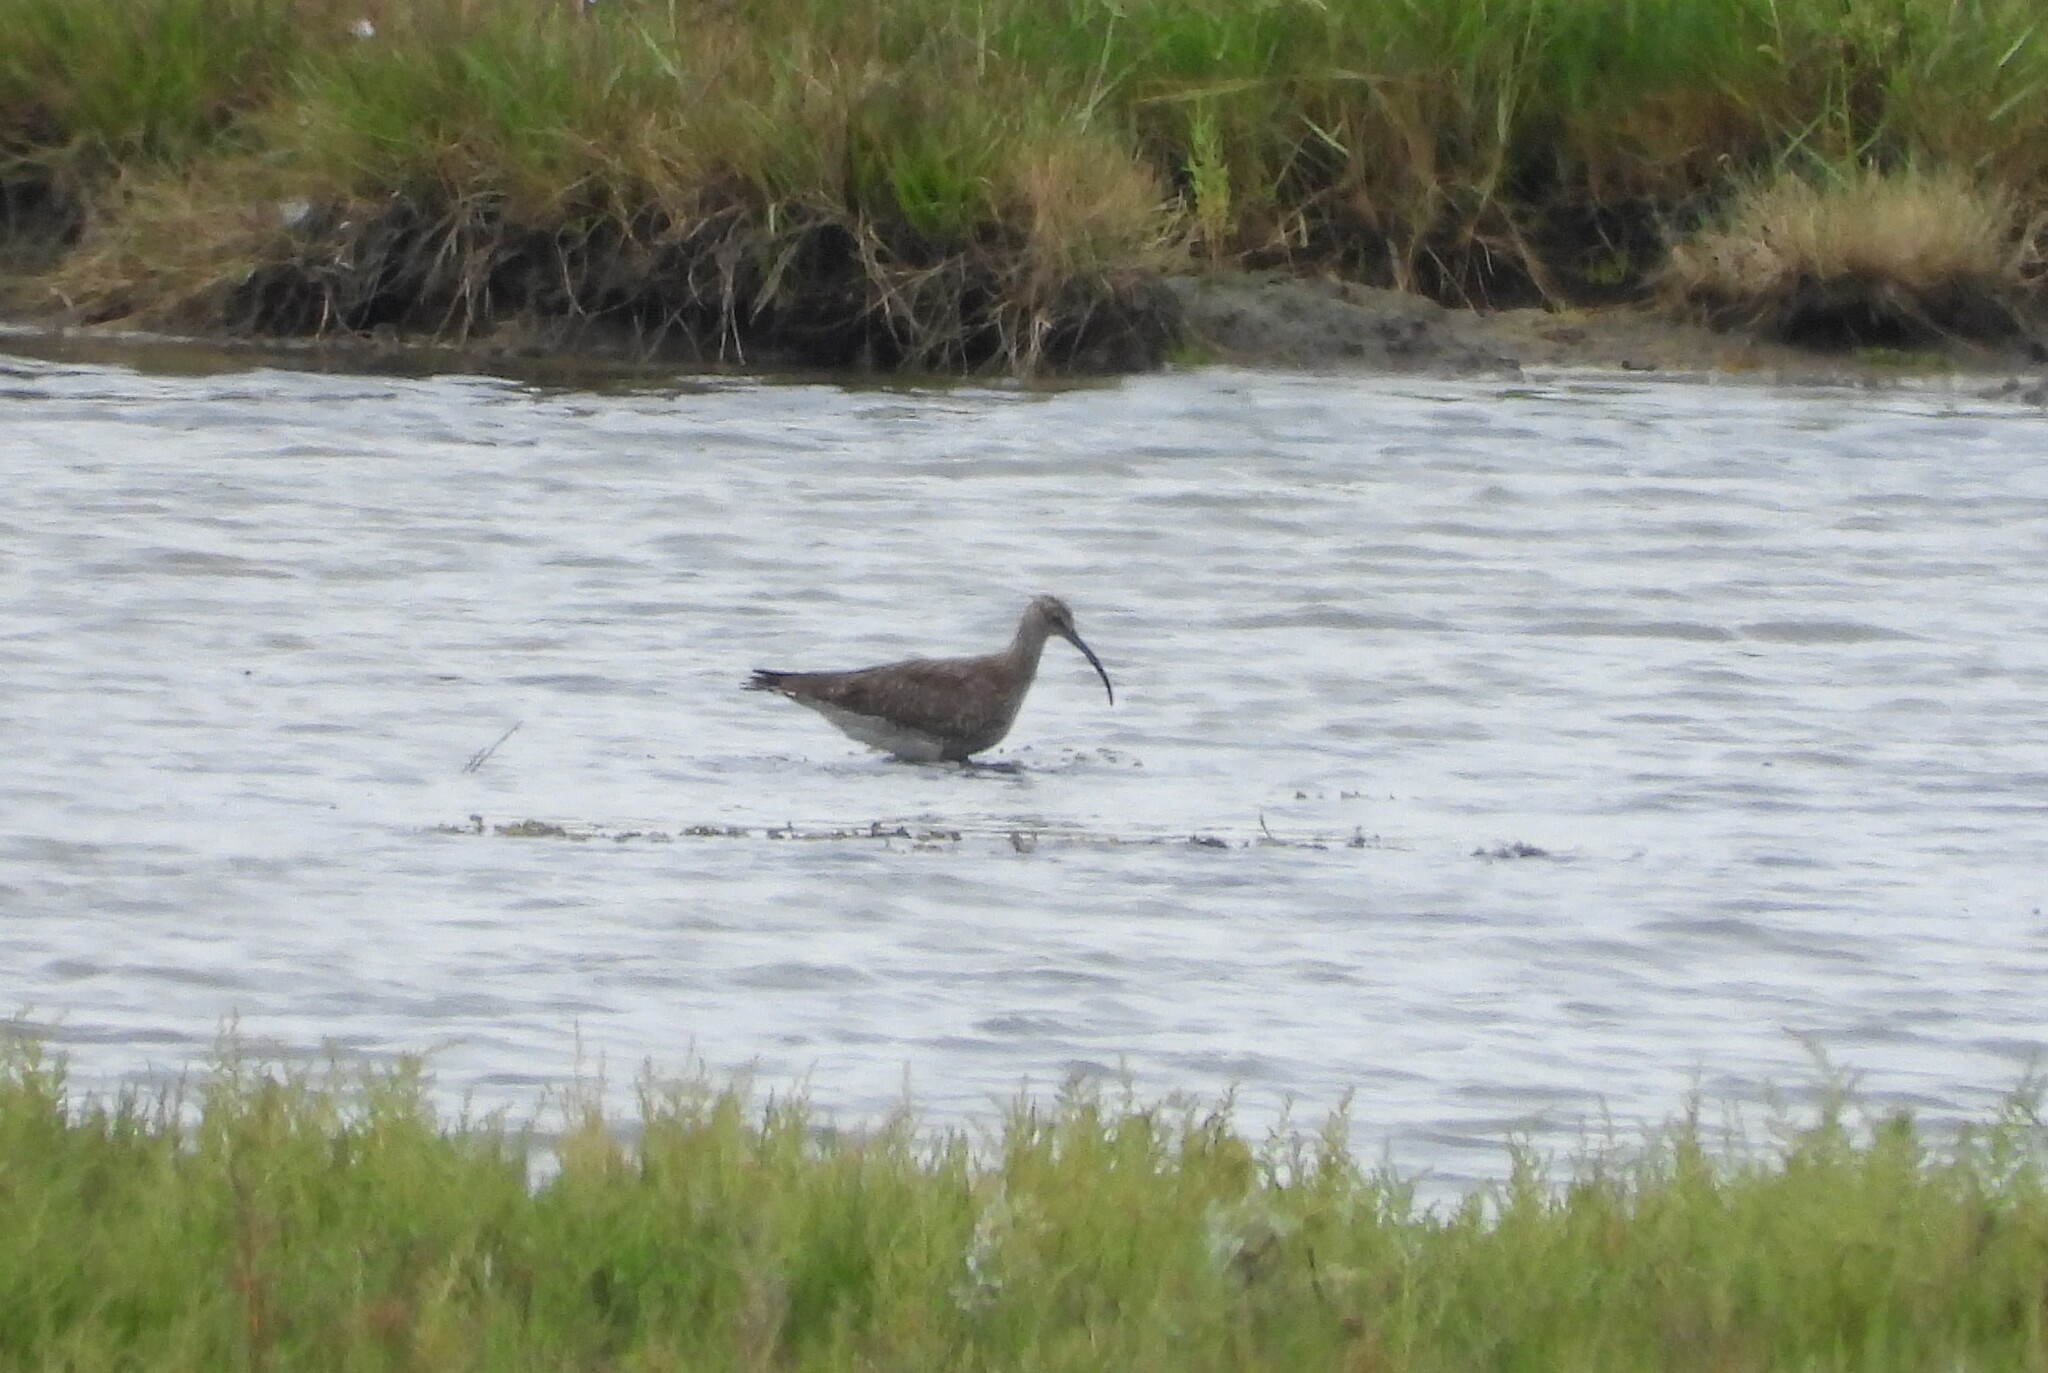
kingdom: Animalia
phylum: Chordata
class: Aves
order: Charadriiformes
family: Scolopacidae
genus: Numenius
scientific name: Numenius phaeopus
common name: Whimbrel
